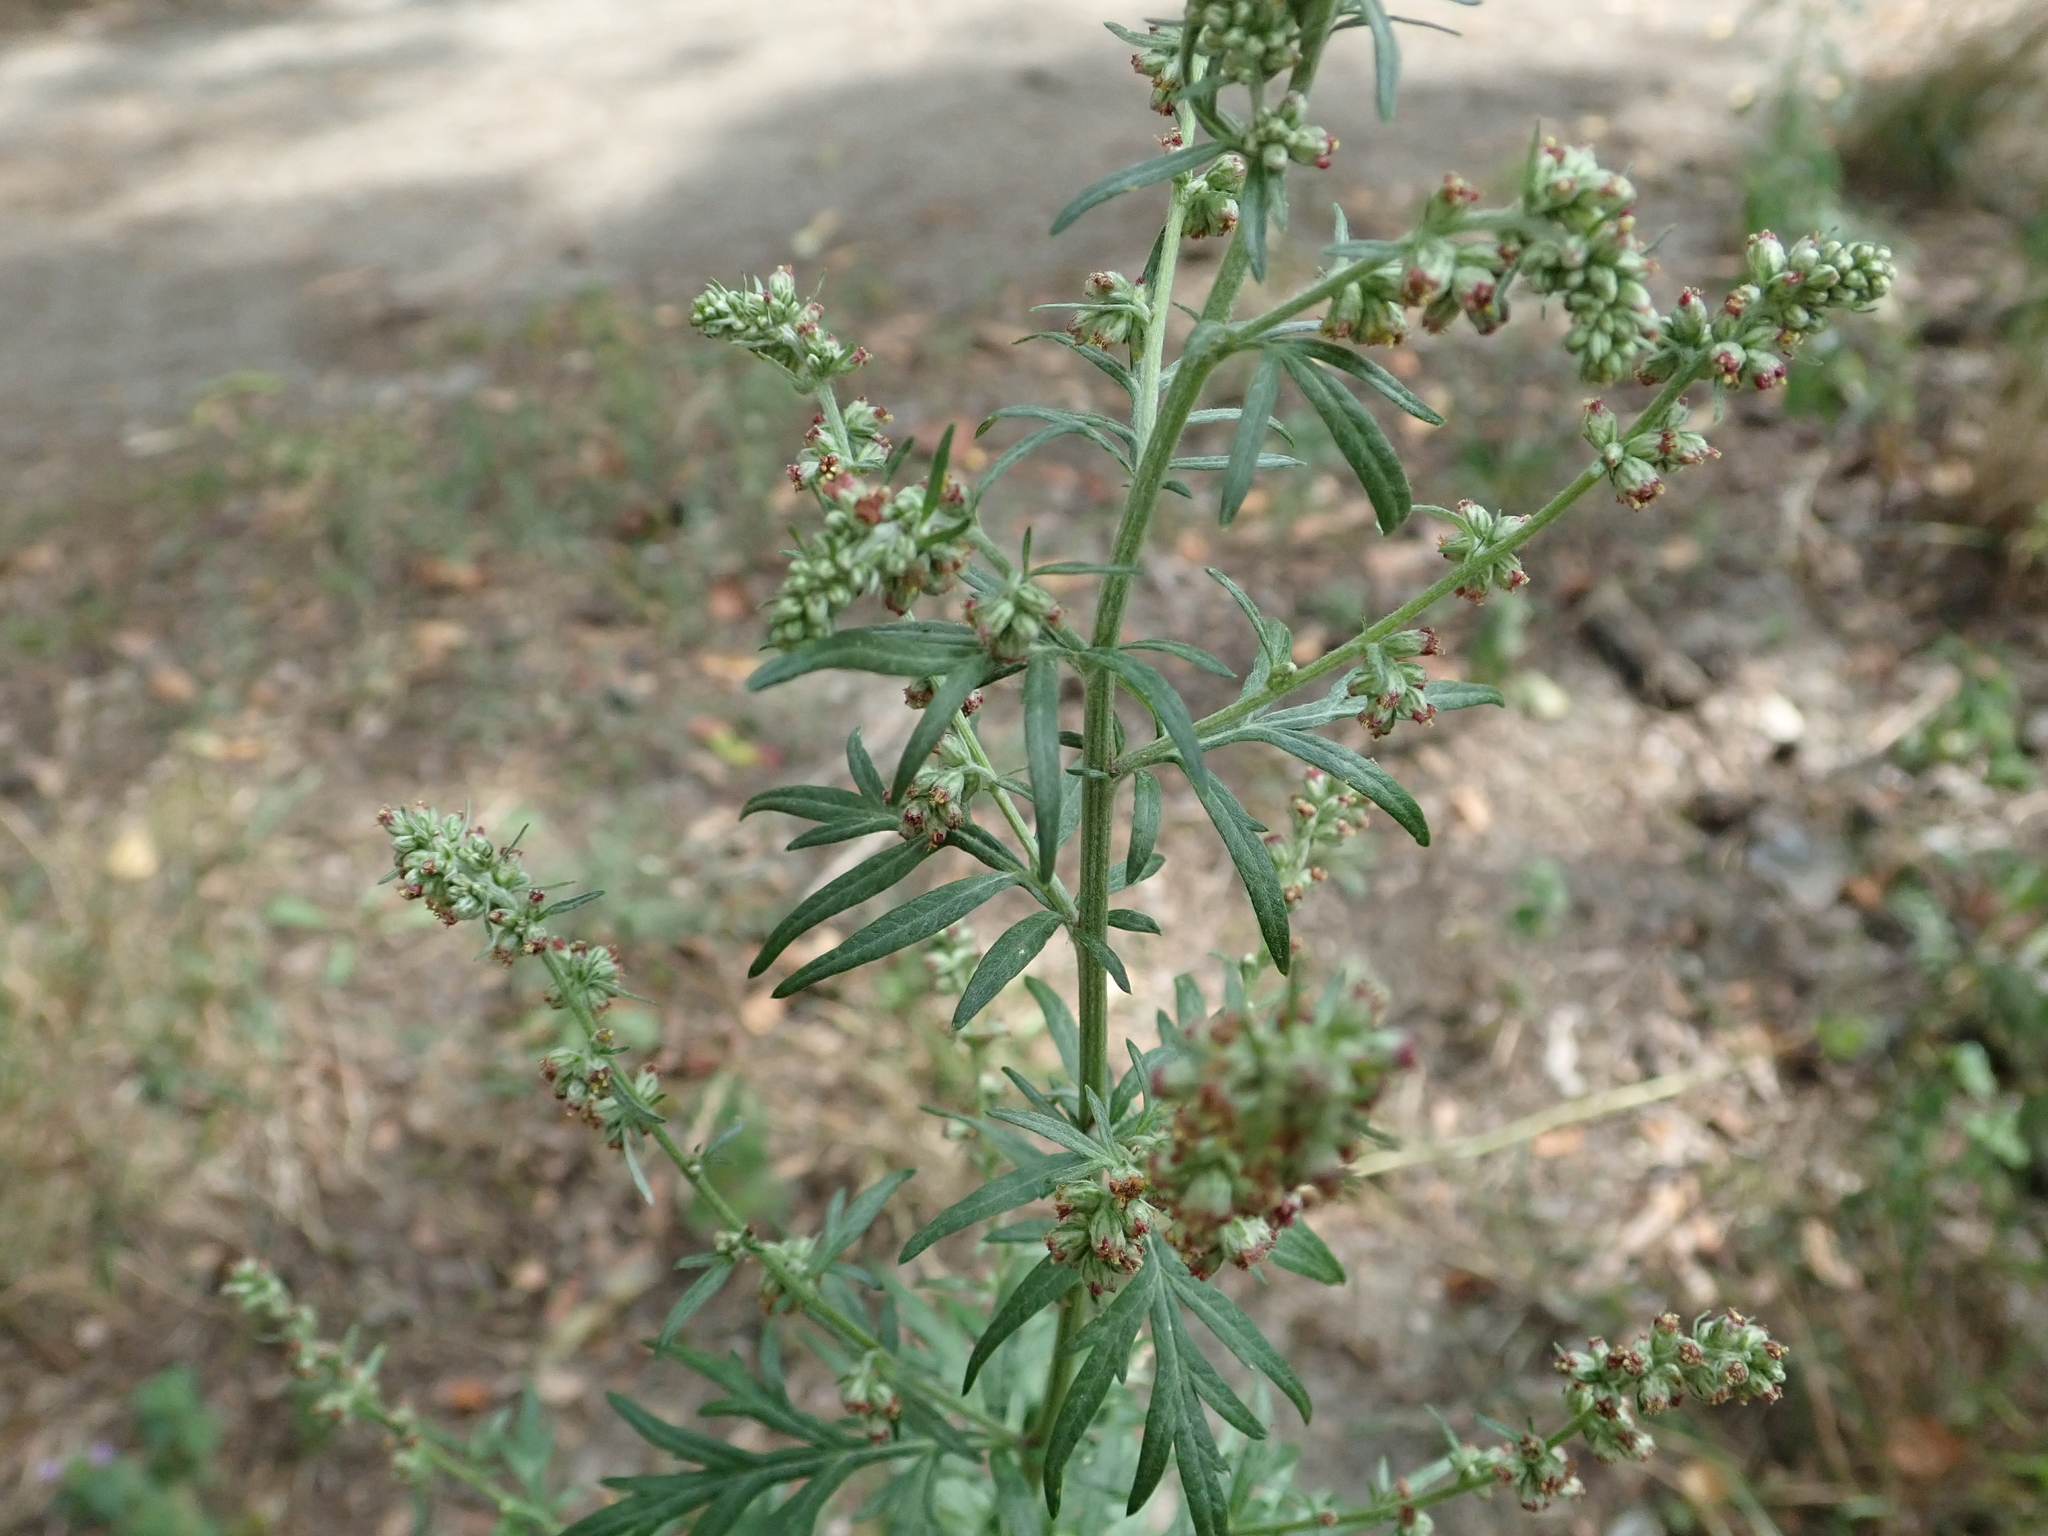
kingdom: Plantae
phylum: Tracheophyta
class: Magnoliopsida
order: Asterales
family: Asteraceae
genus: Artemisia
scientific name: Artemisia vulgaris
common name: Mugwort
